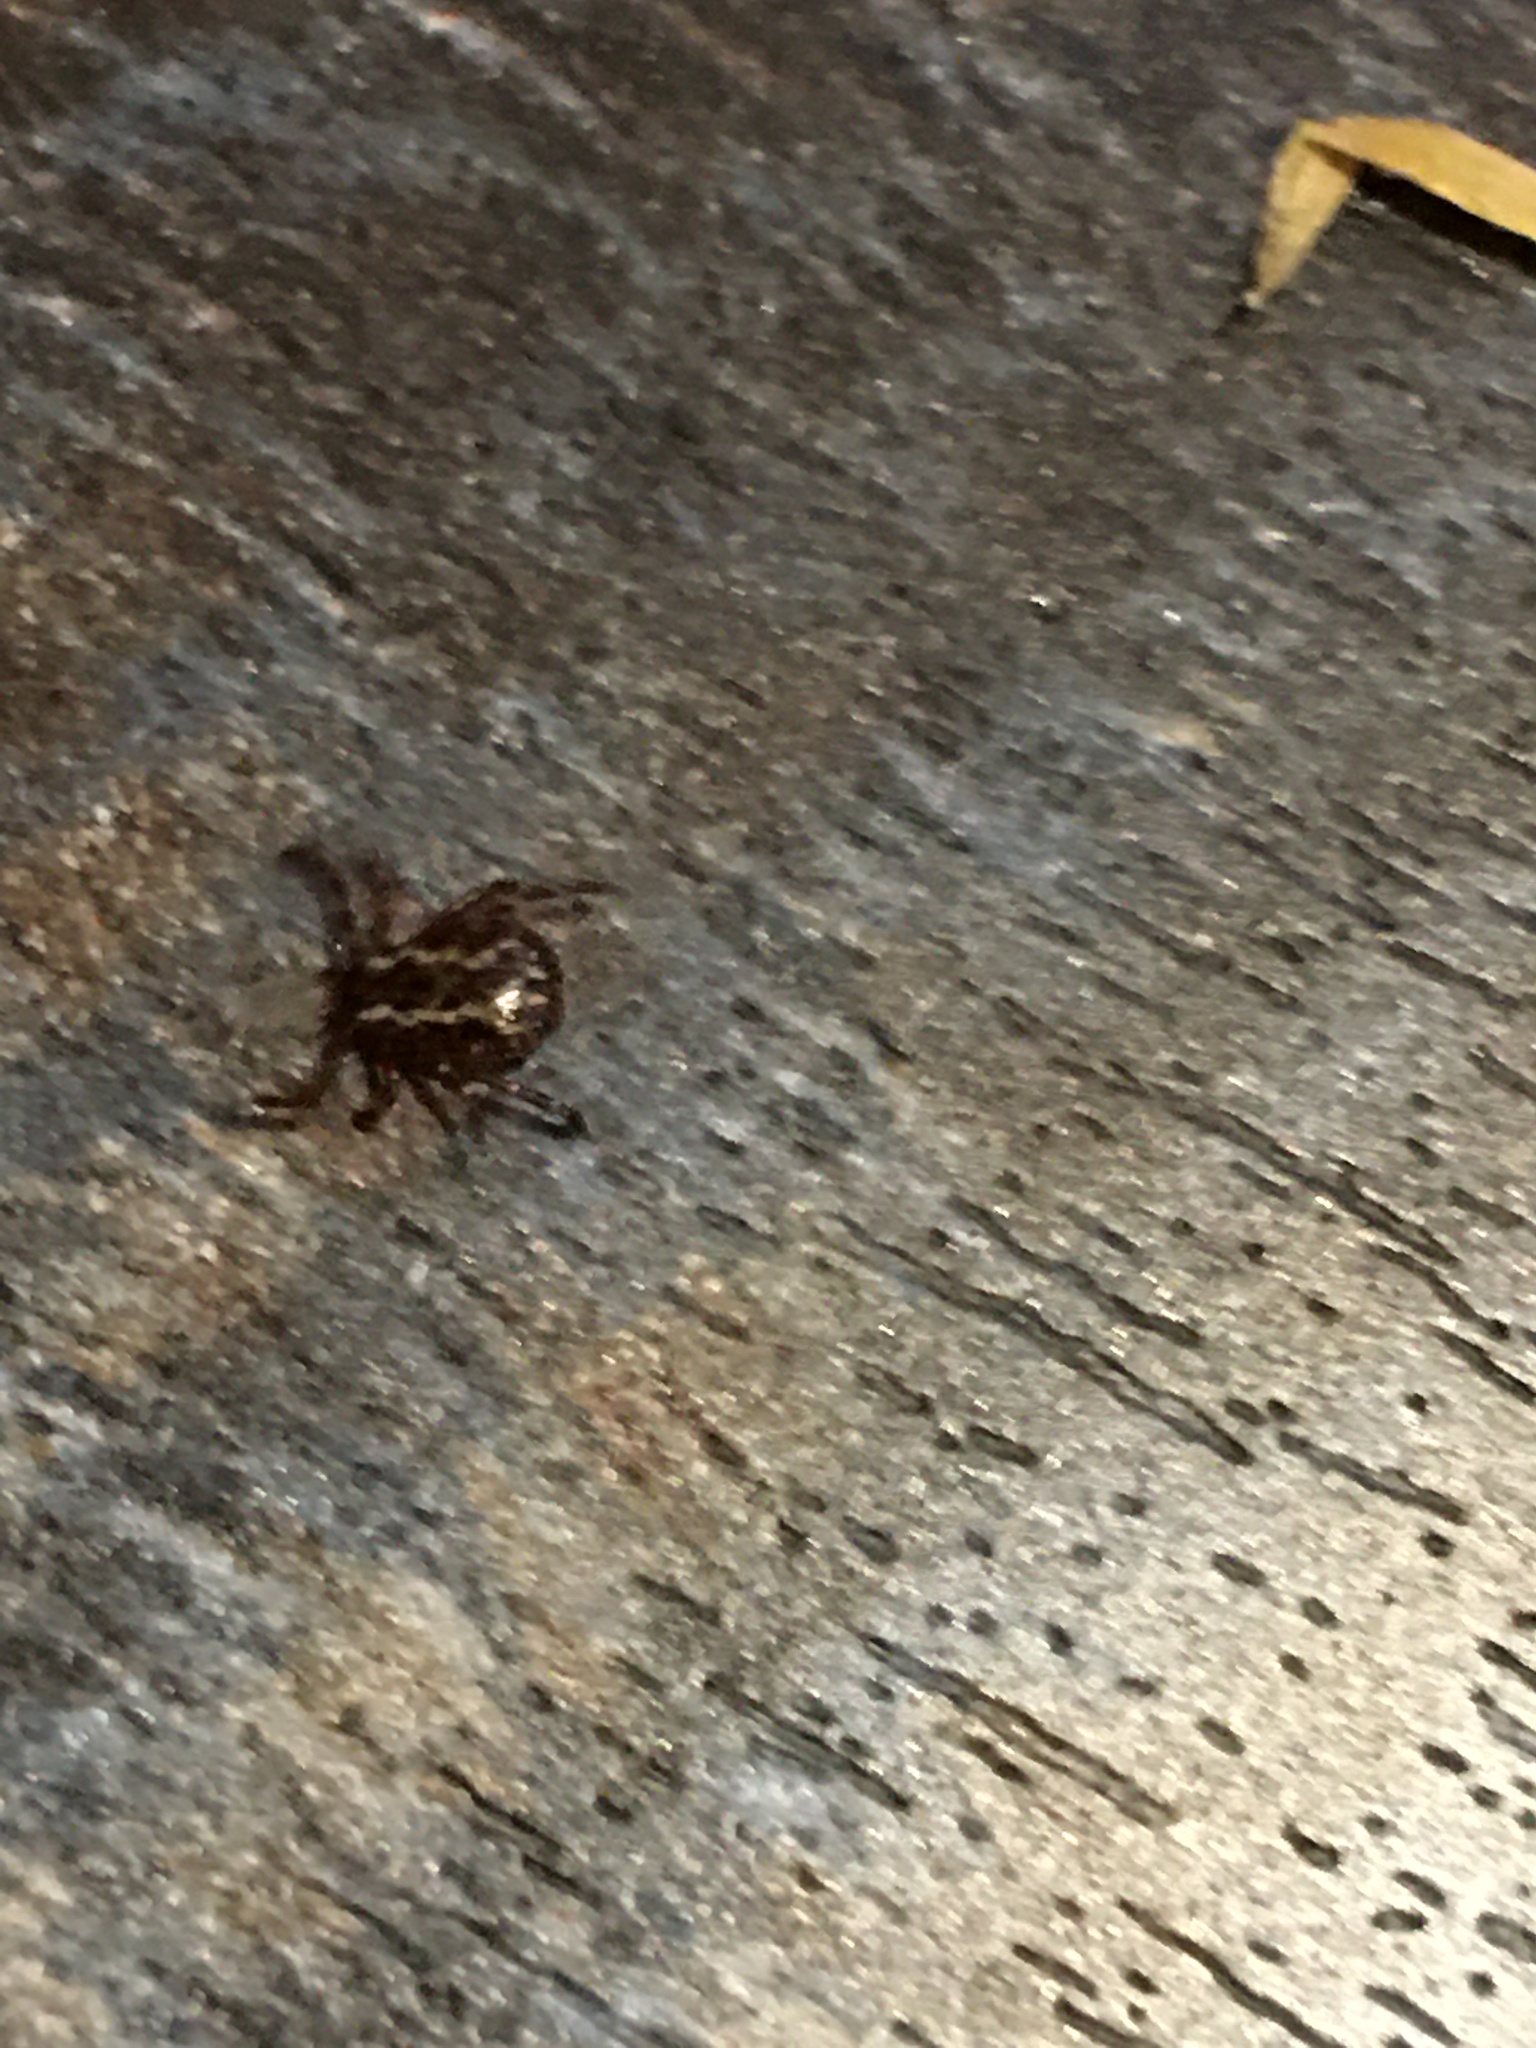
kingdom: Animalia
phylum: Arthropoda
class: Arachnida
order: Ixodida
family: Ixodidae
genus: Dermacentor
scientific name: Dermacentor variabilis
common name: American dog tick
